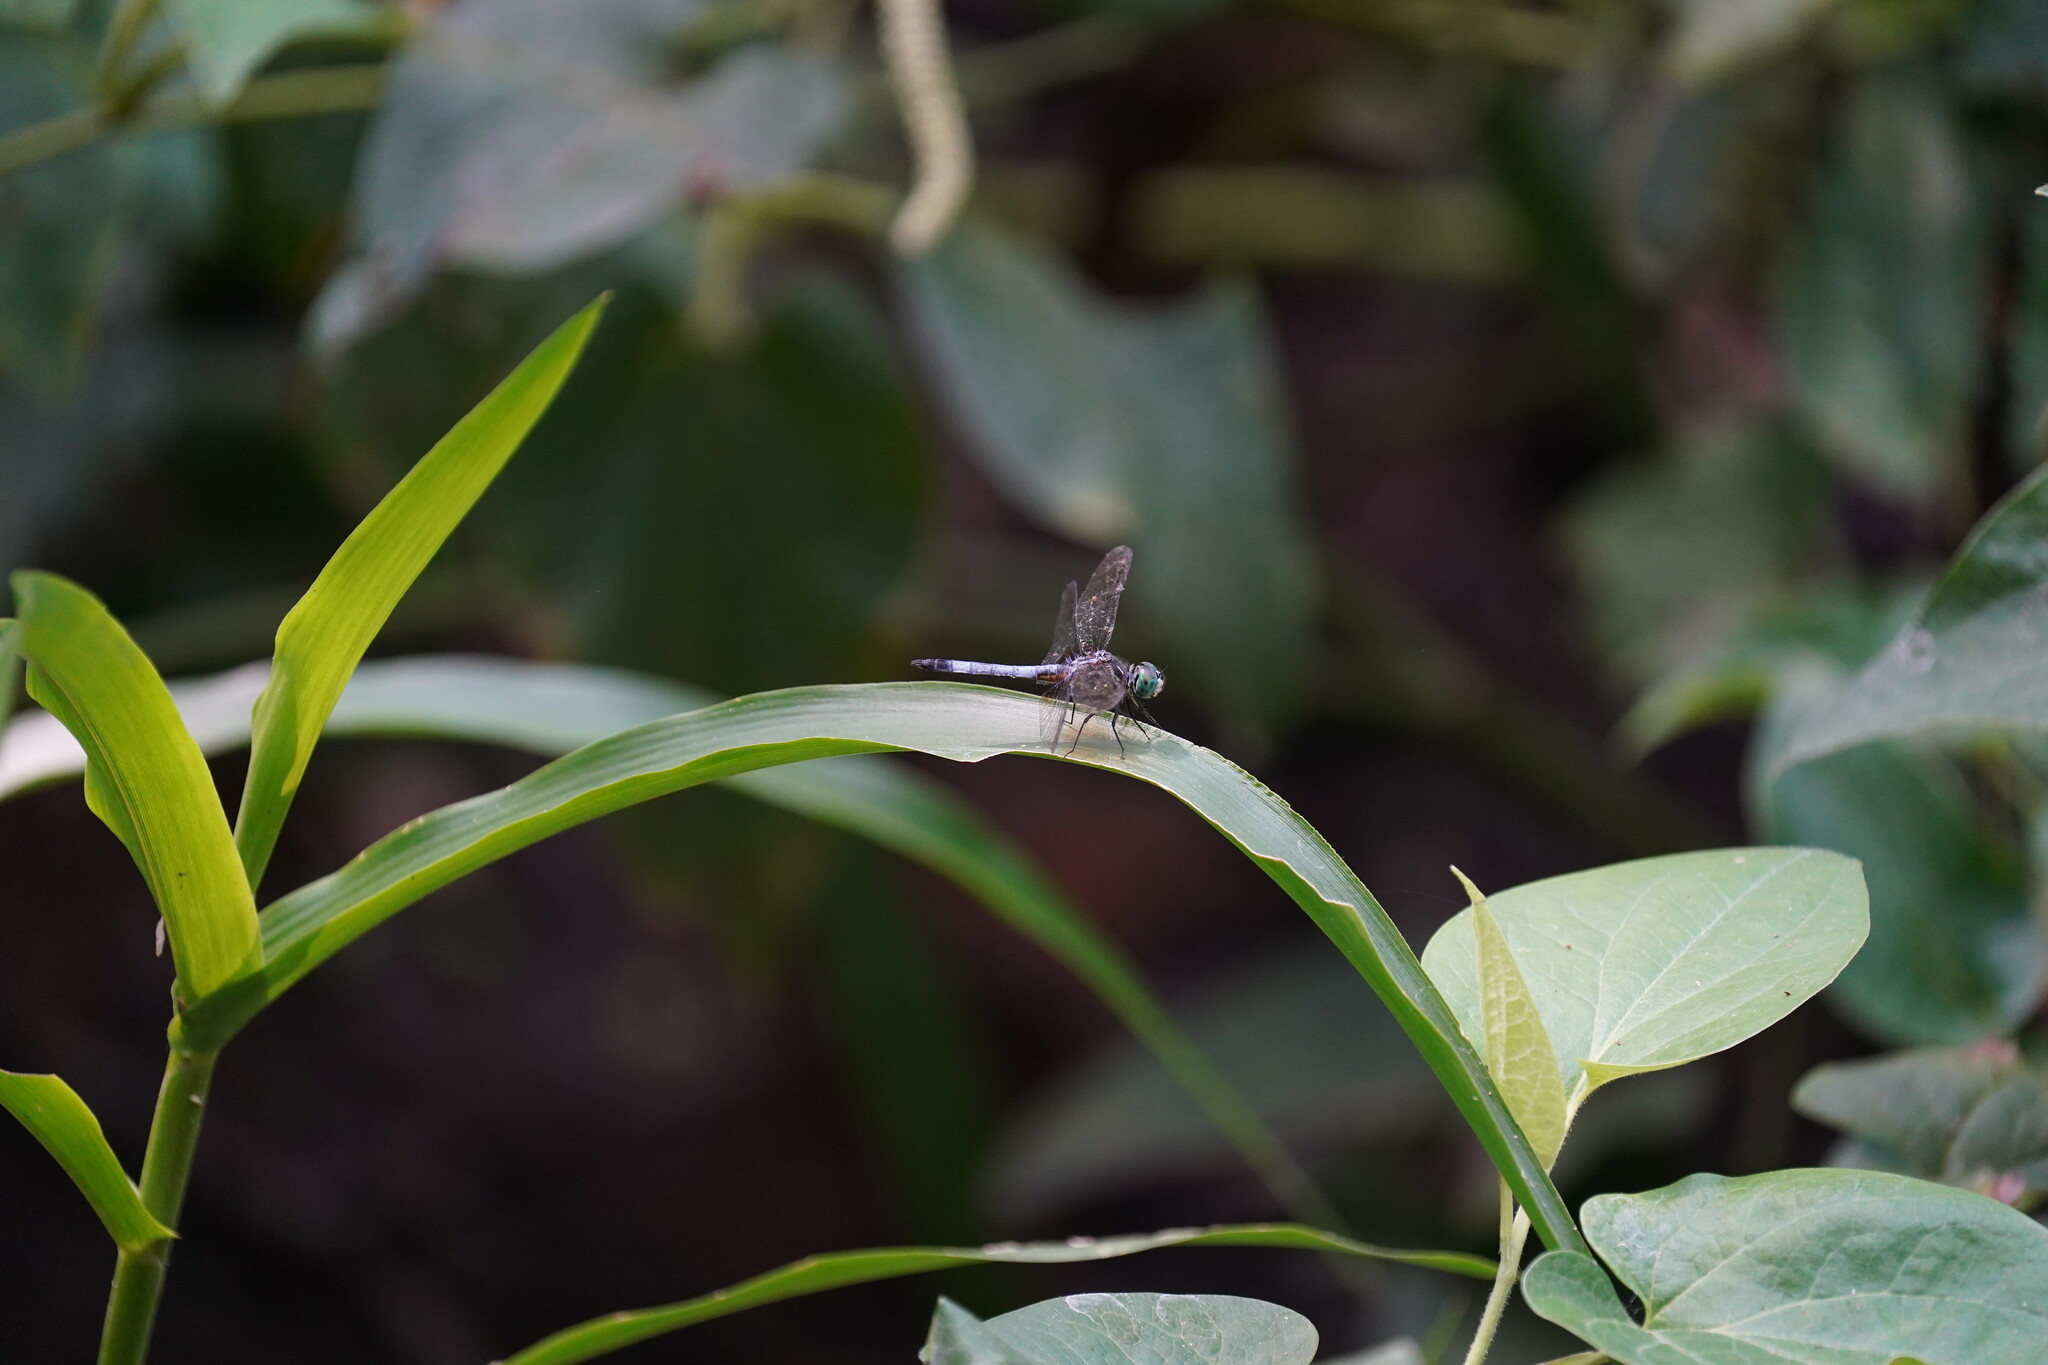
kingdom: Animalia
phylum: Arthropoda
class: Insecta
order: Odonata
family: Libellulidae
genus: Pachydiplax
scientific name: Pachydiplax longipennis
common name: Blue dasher
